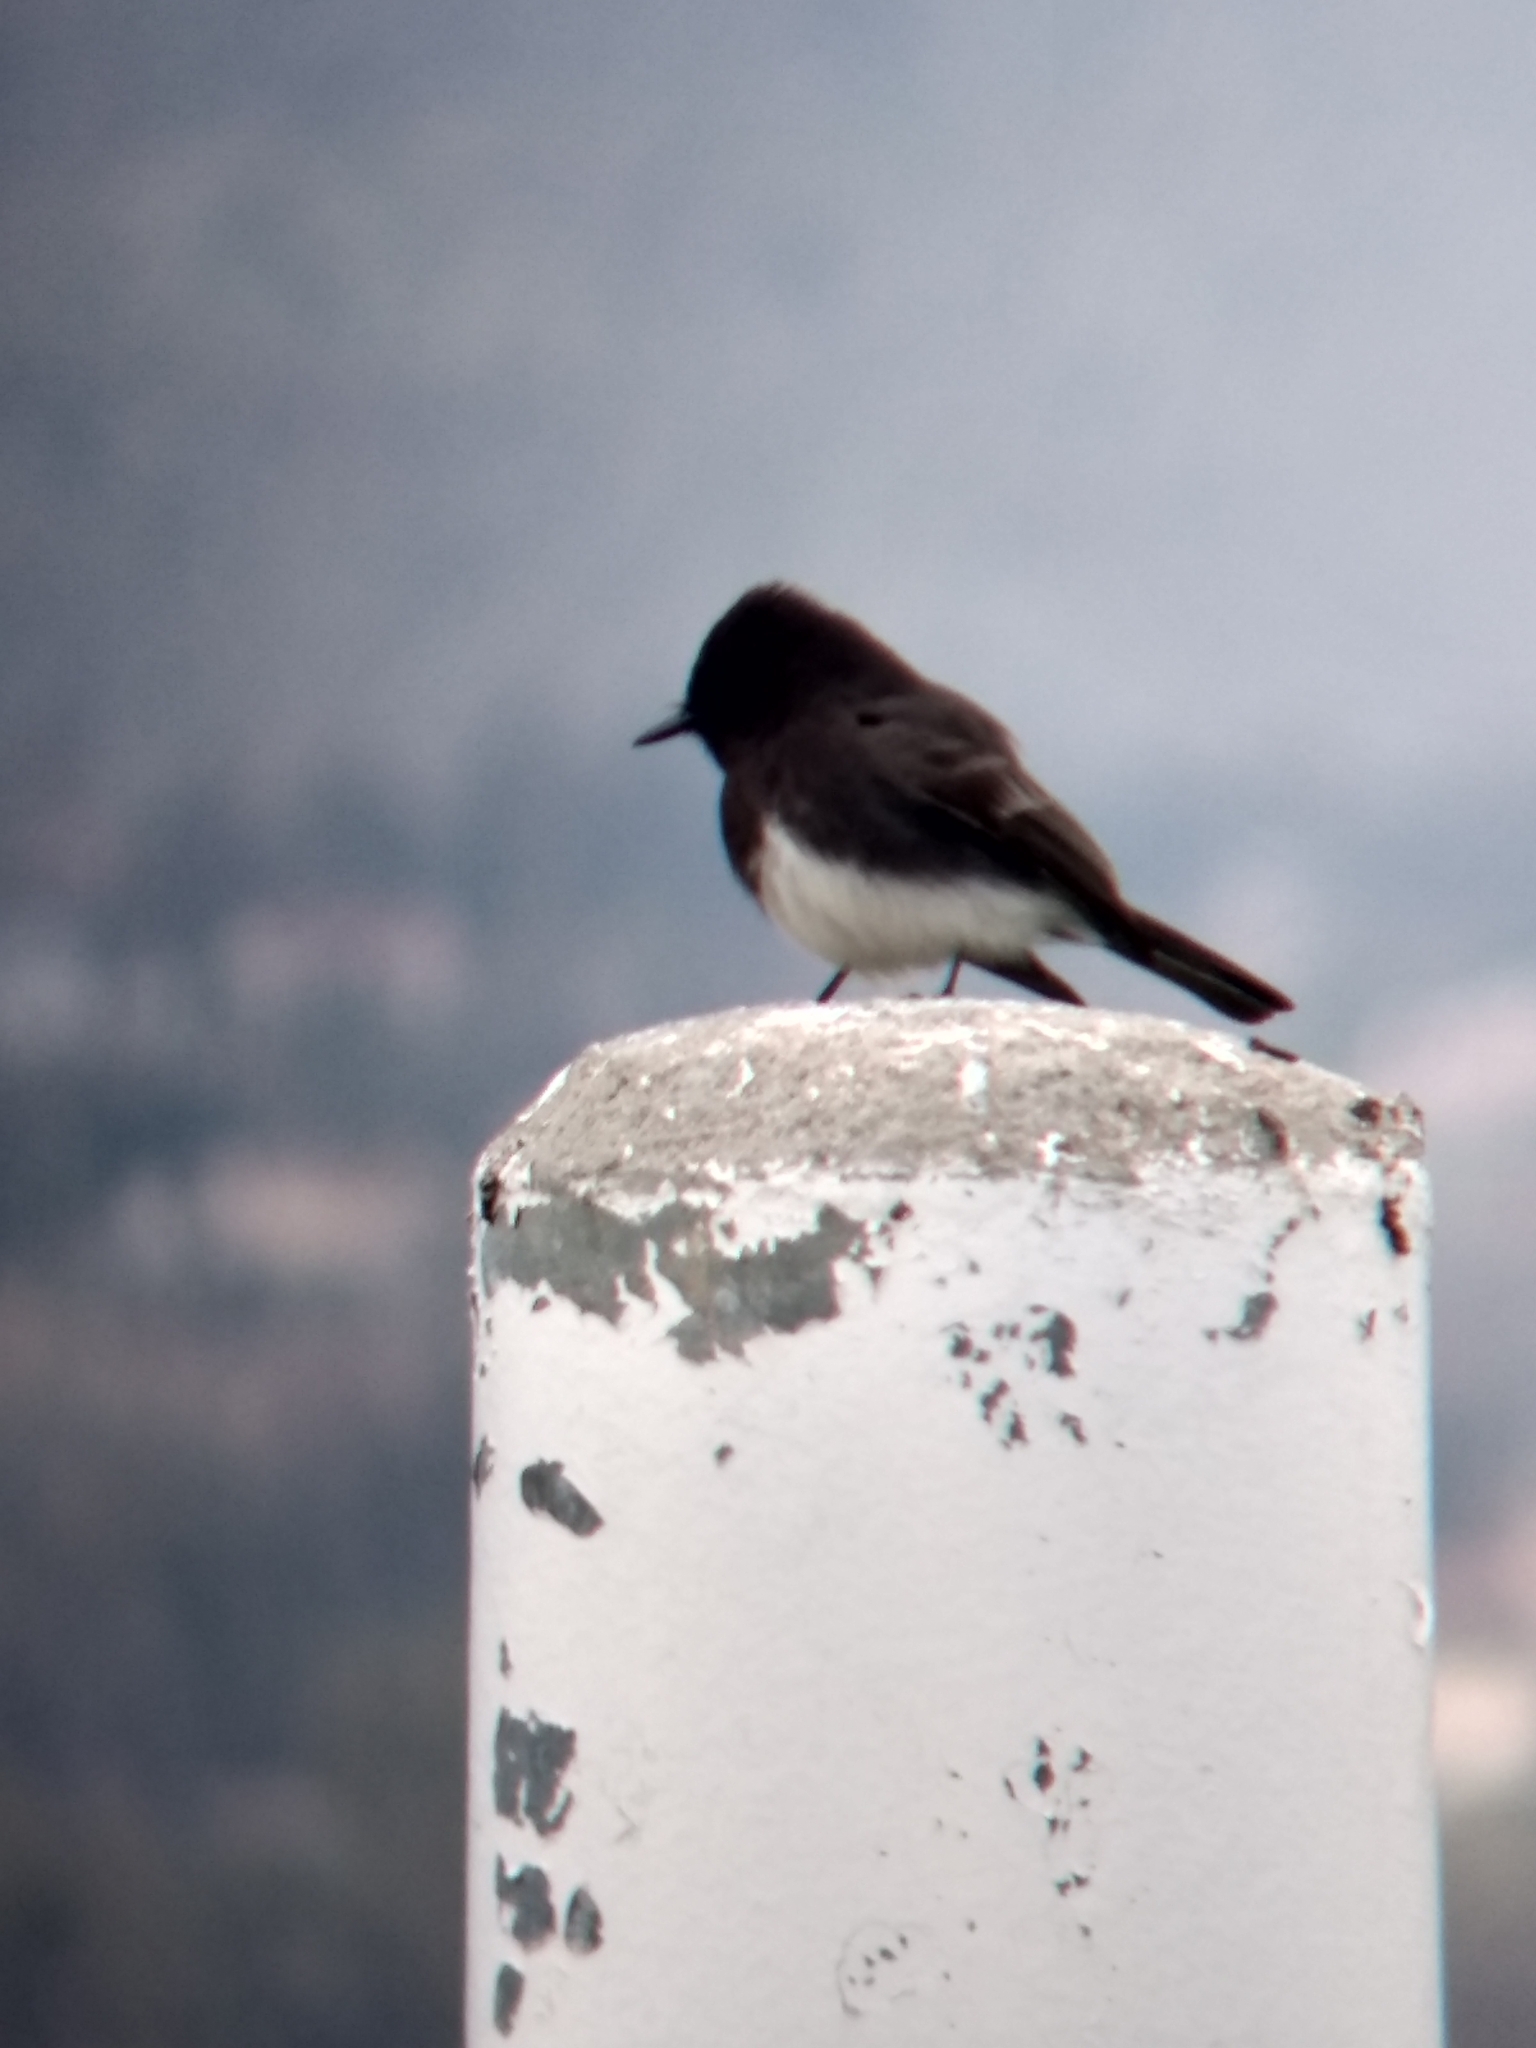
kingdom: Animalia
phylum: Chordata
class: Aves
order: Passeriformes
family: Tyrannidae
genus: Sayornis
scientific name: Sayornis nigricans
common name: Black phoebe
